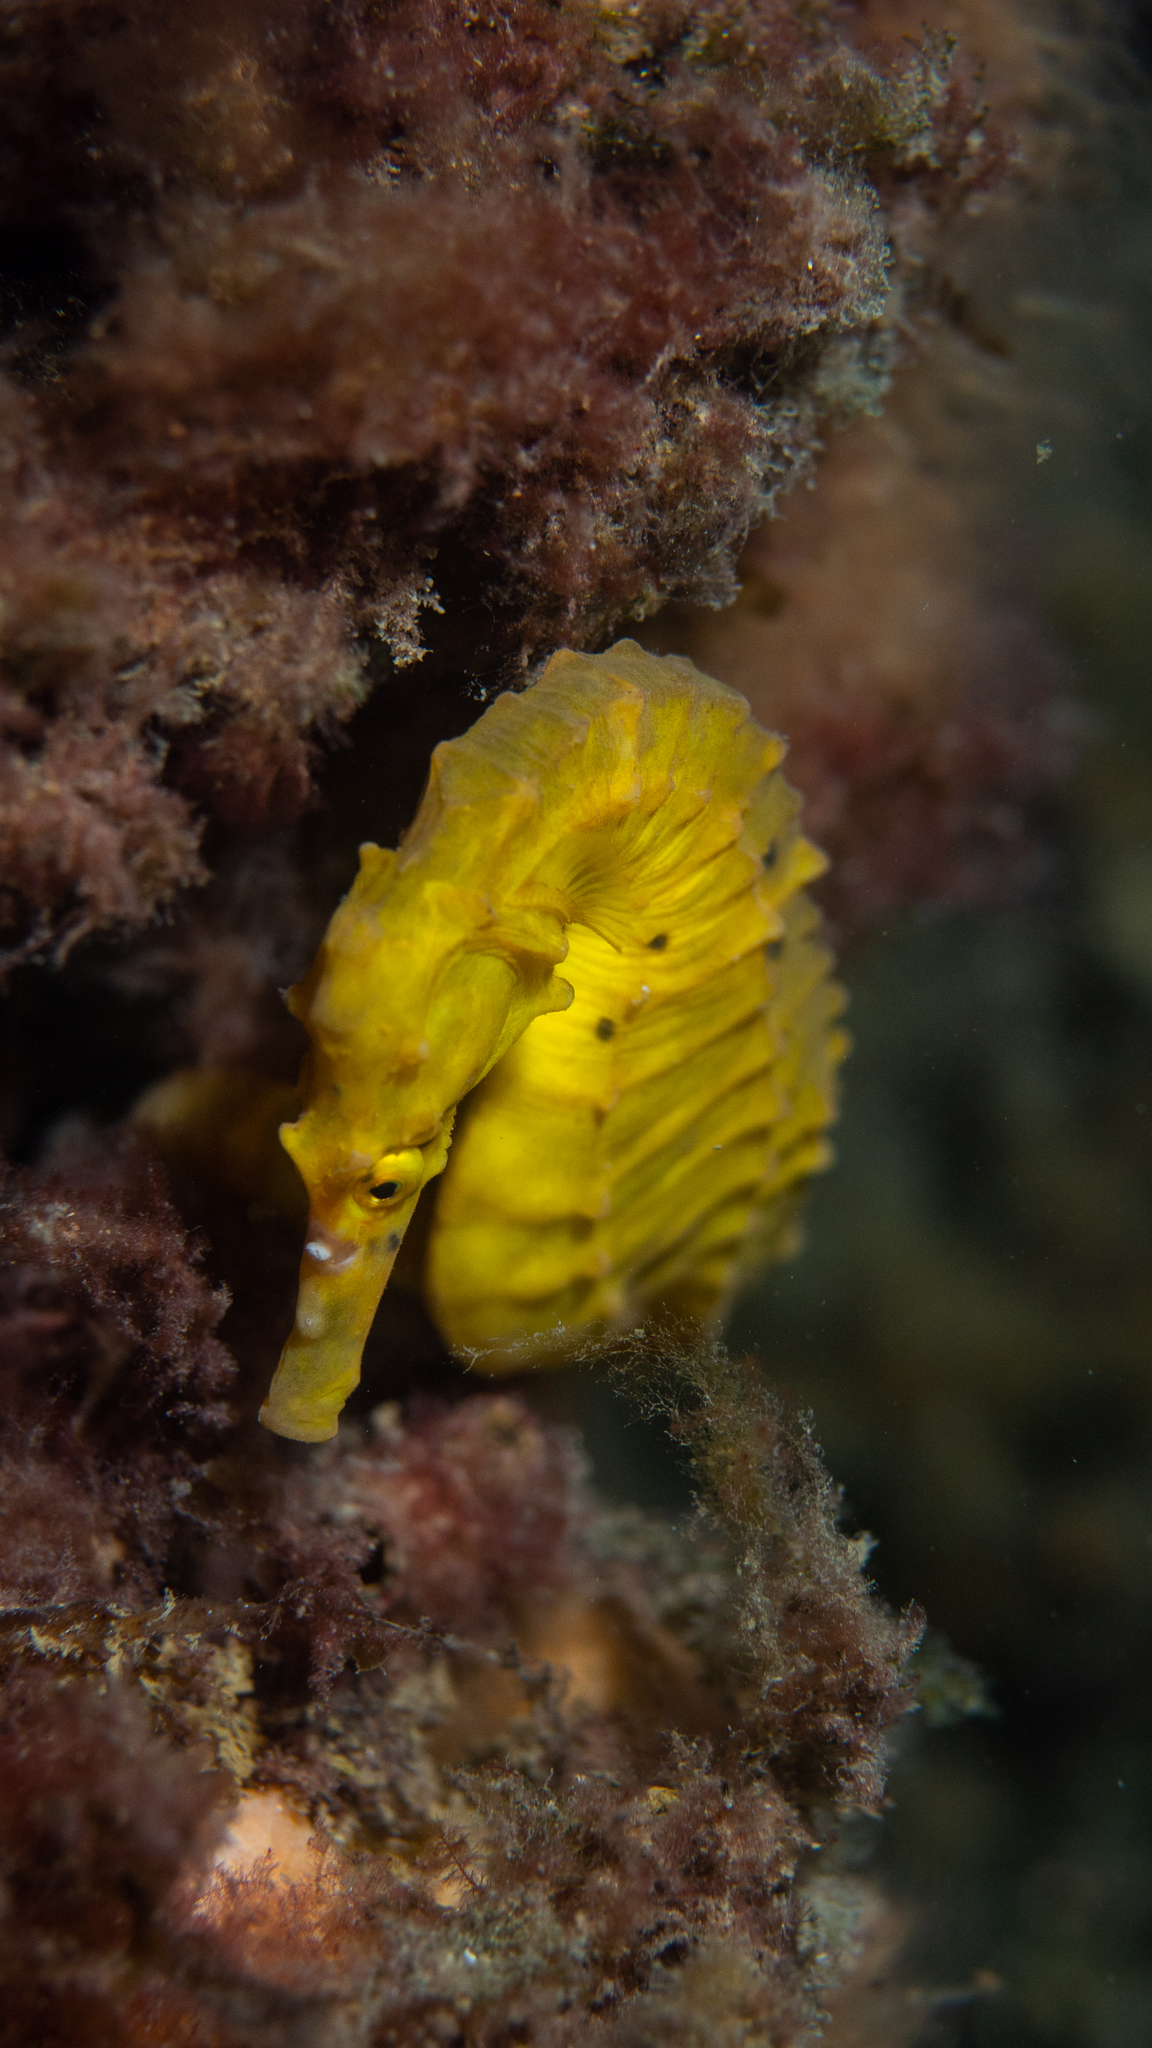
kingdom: Animalia
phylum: Chordata
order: Syngnathiformes
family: Syngnathidae
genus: Hippocampus
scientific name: Hippocampus abdominalis
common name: Big-belly seahorse
